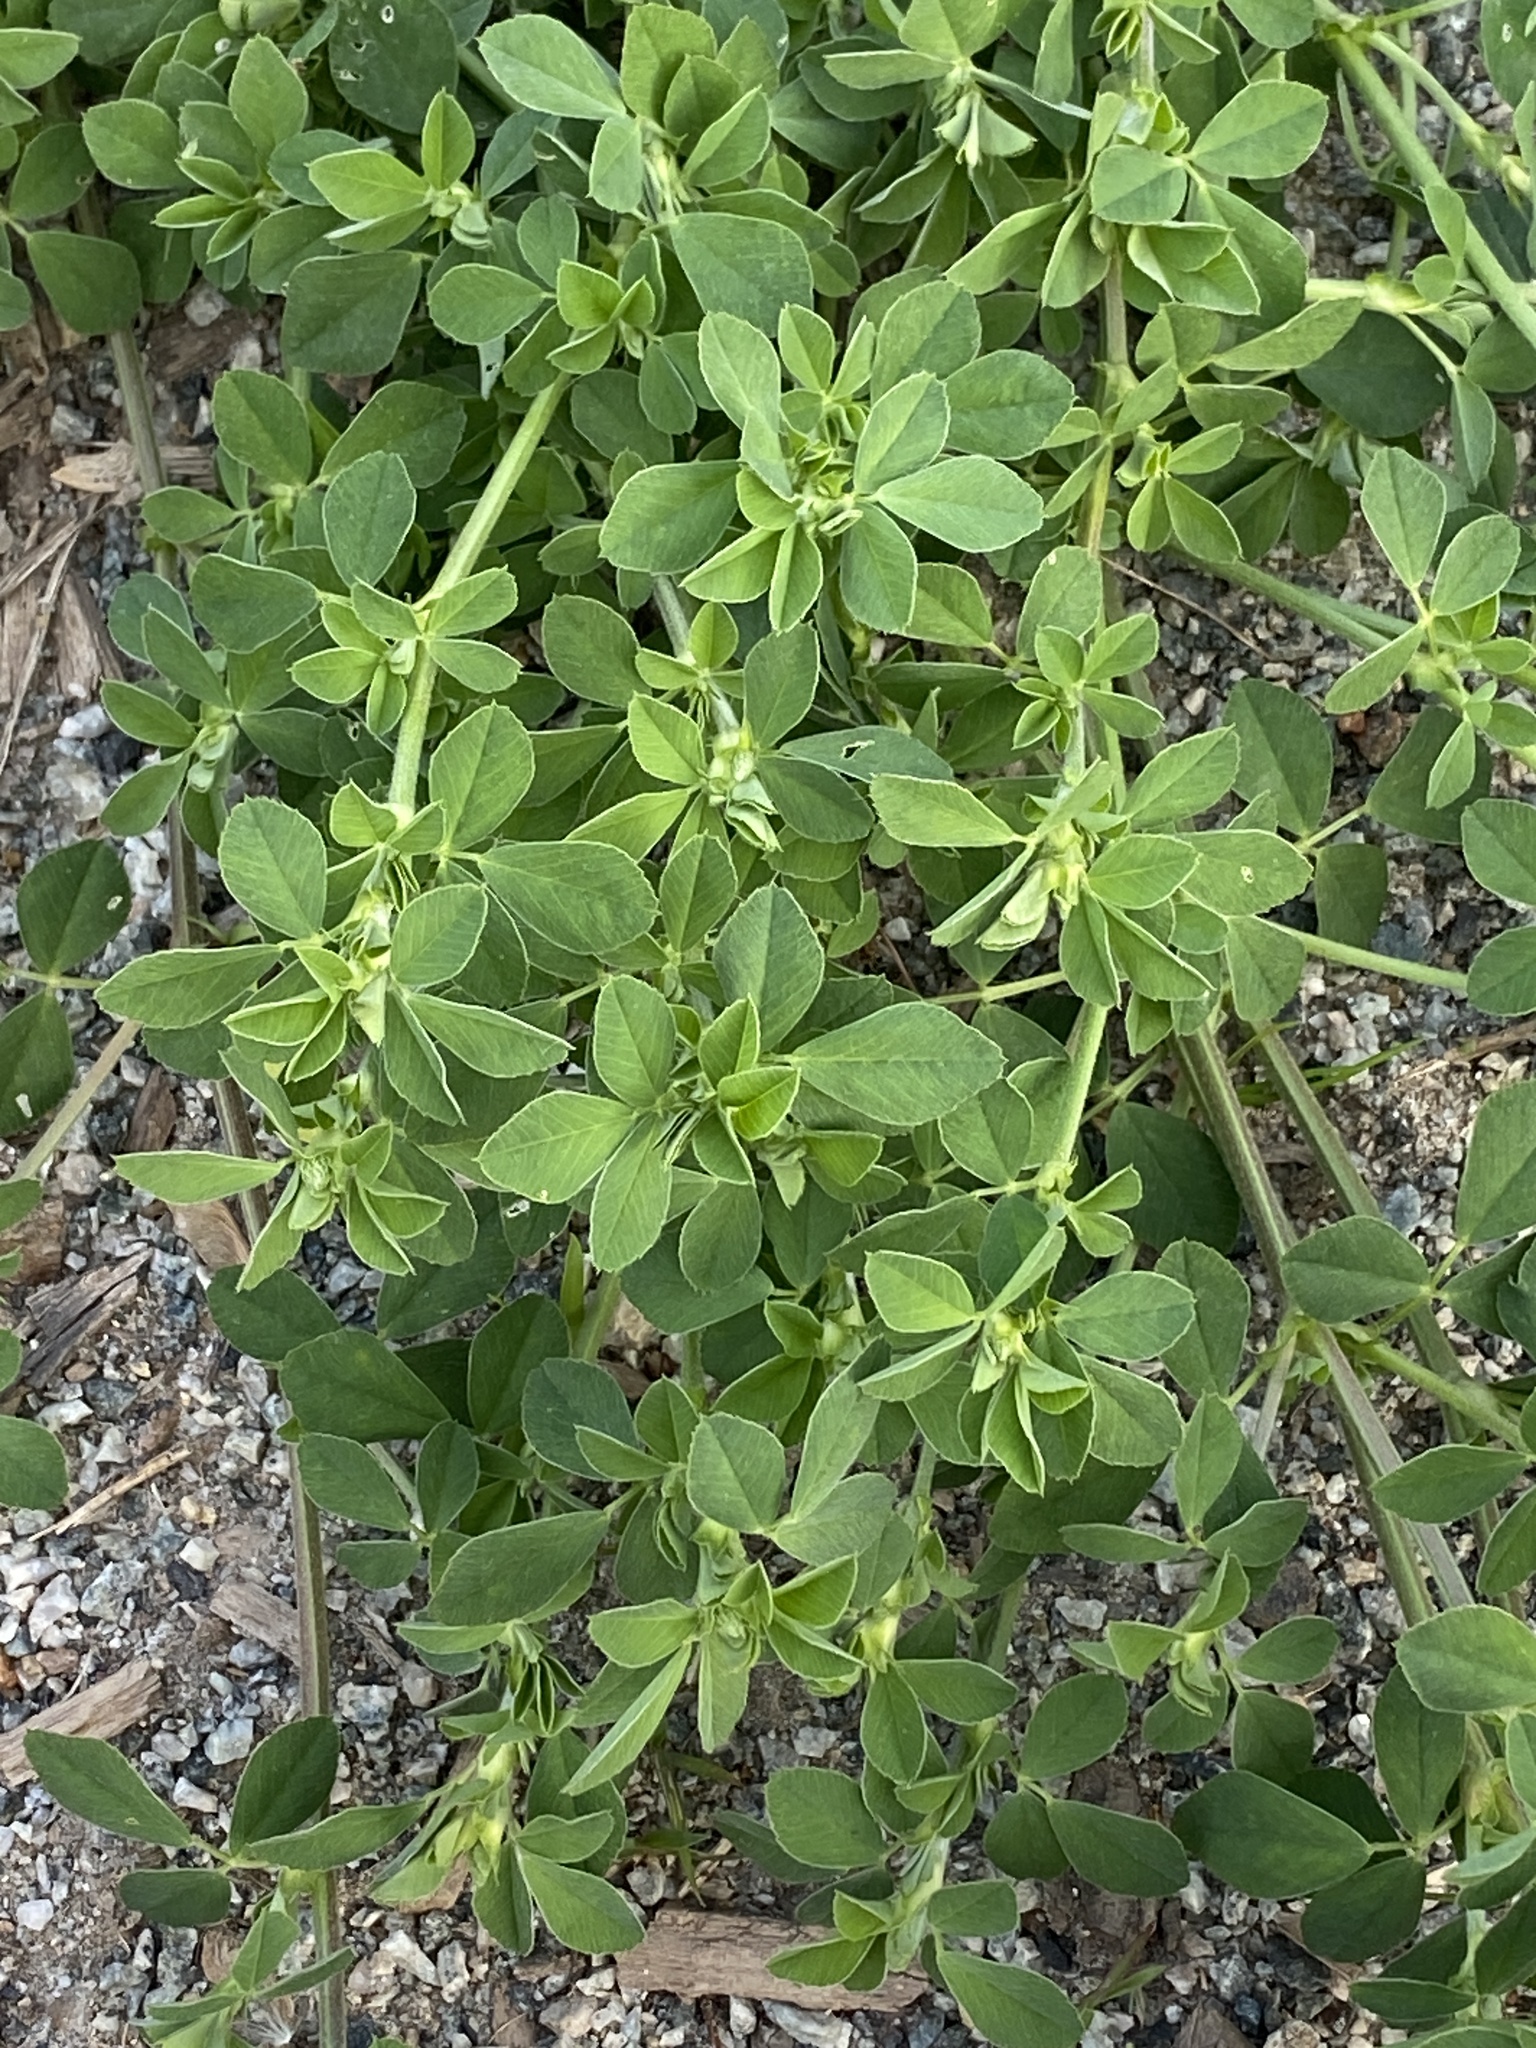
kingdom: Plantae
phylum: Tracheophyta
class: Magnoliopsida
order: Fabales
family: Fabaceae
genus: Lotus
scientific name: Lotus corniculatus
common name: Common bird's-foot-trefoil
